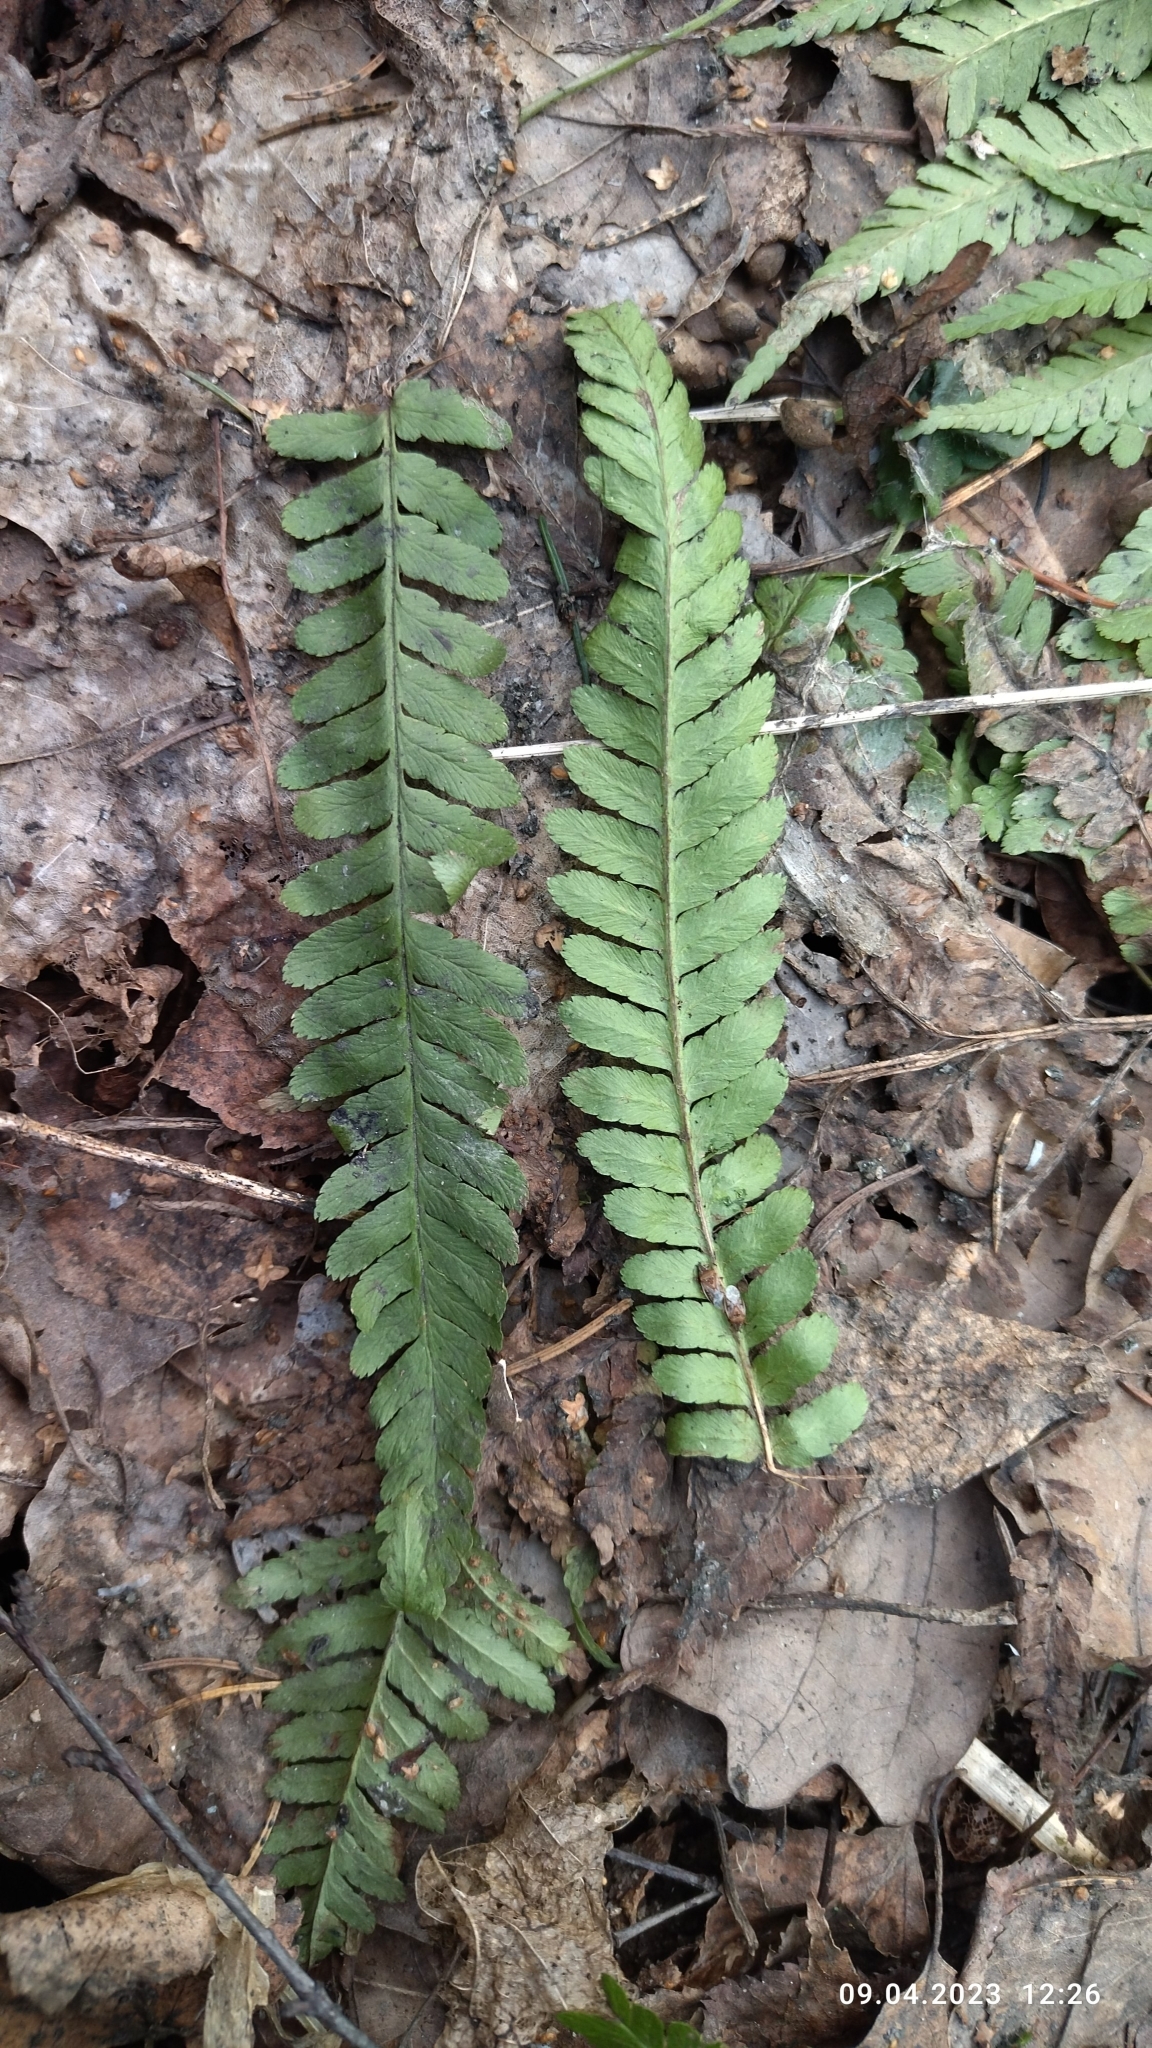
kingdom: Plantae
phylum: Tracheophyta
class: Polypodiopsida
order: Polypodiales
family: Dryopteridaceae
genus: Dryopteris
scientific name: Dryopteris filix-mas
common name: Male fern
